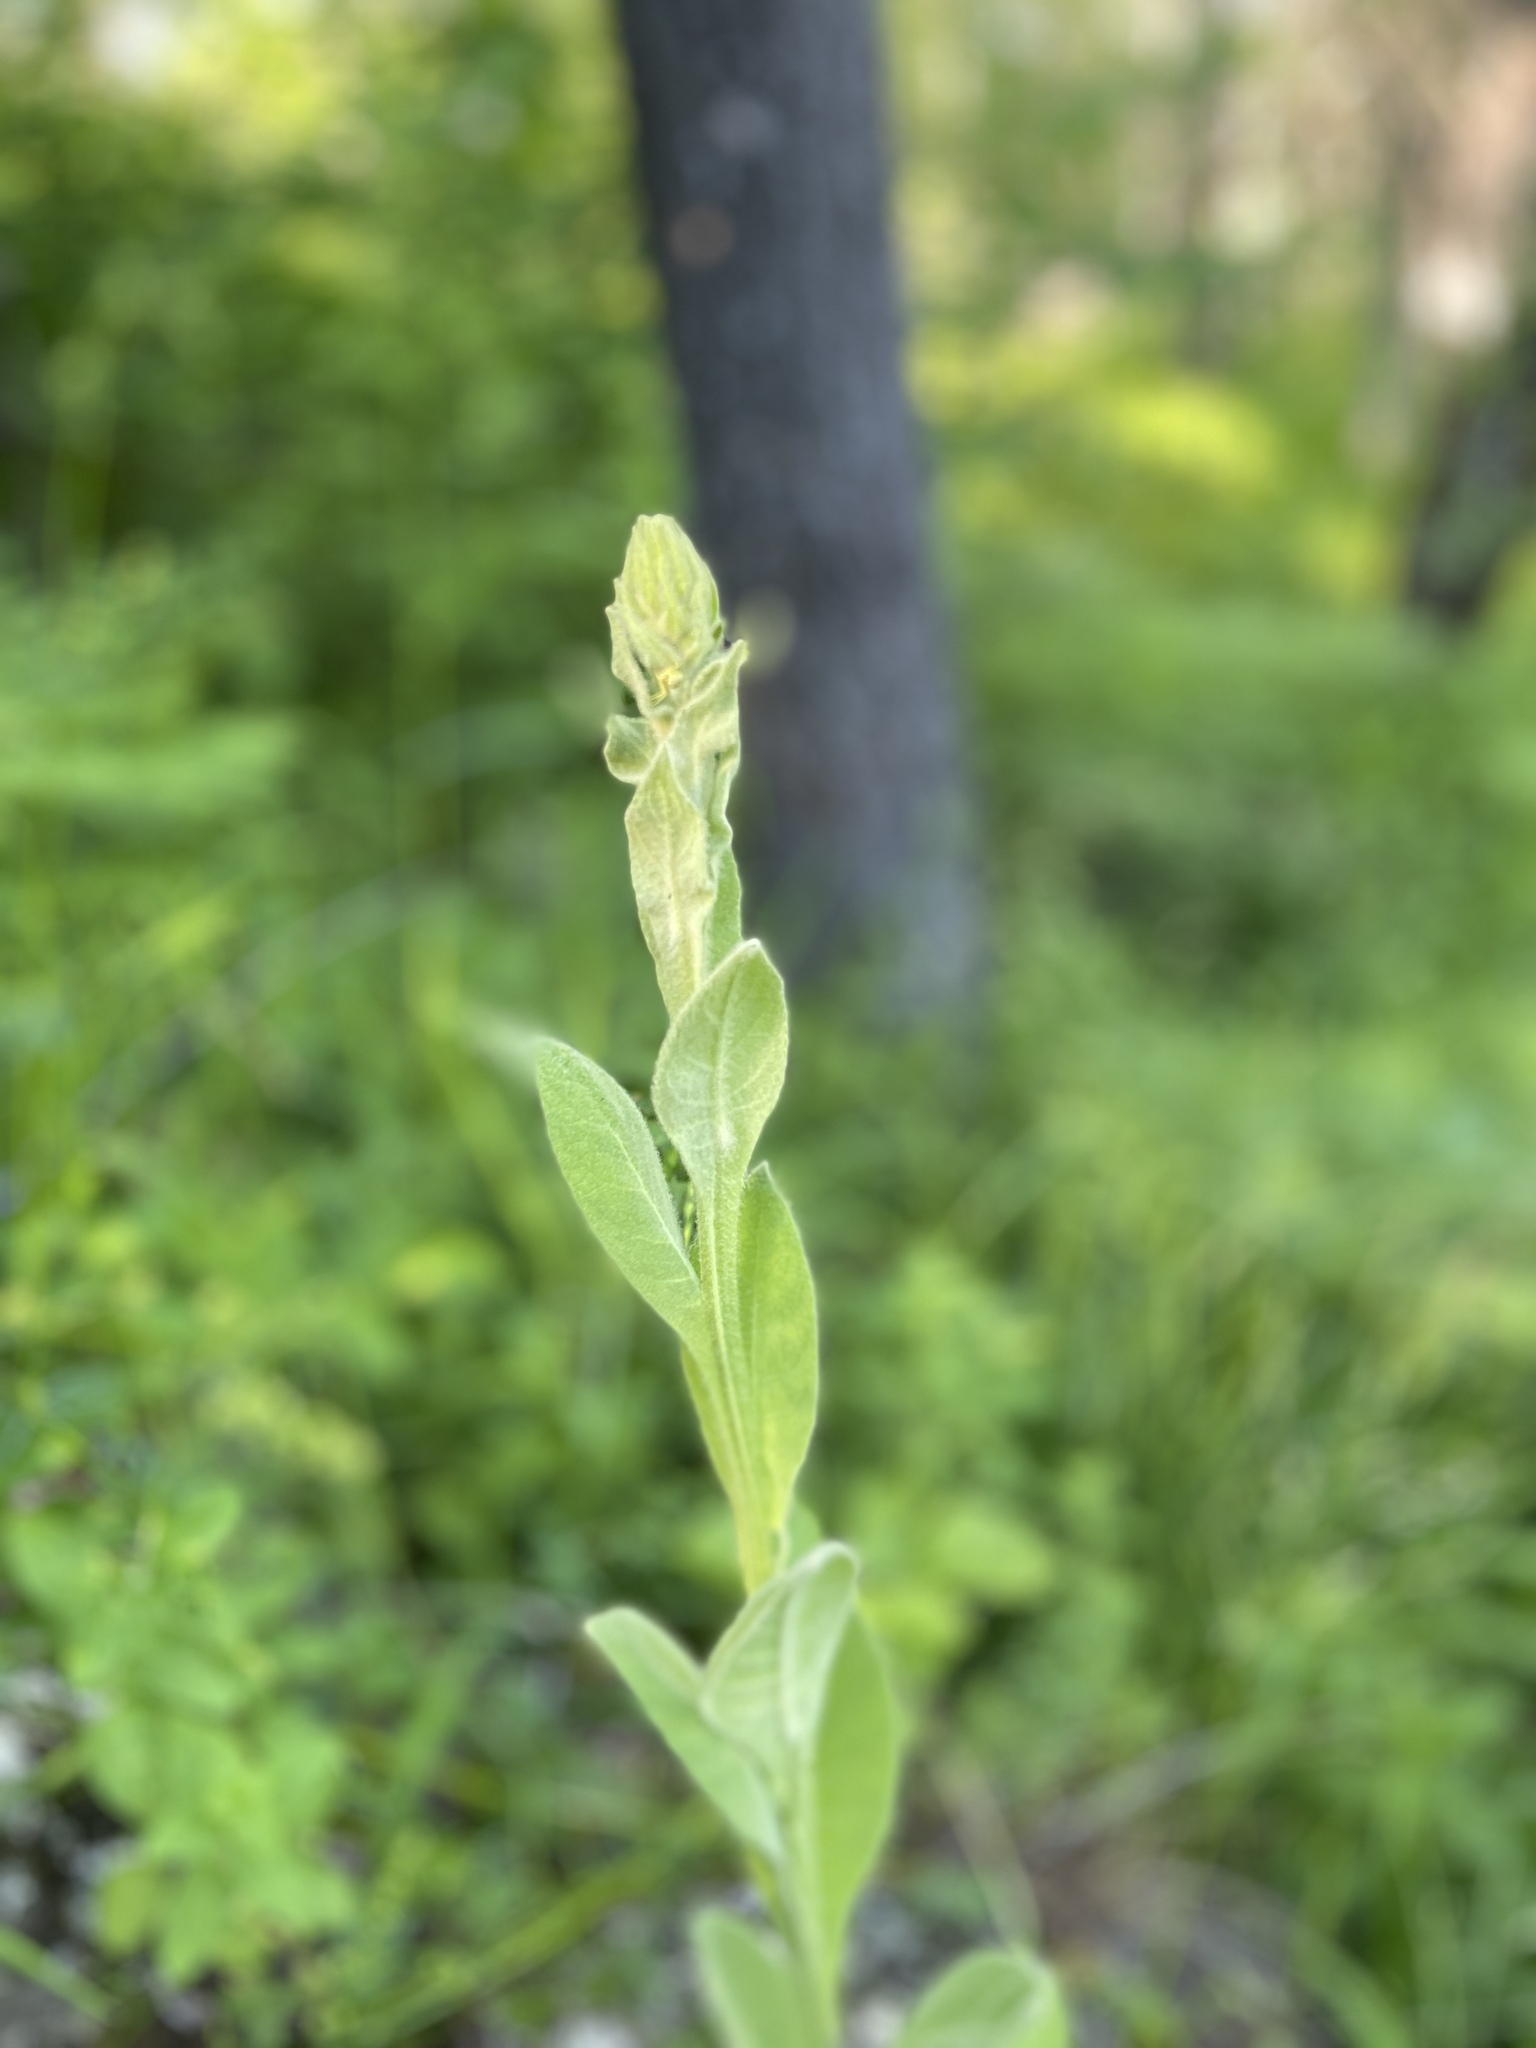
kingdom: Plantae
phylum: Tracheophyta
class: Magnoliopsida
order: Lamiales
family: Scrophulariaceae
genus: Verbascum
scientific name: Verbascum thapsus
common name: Common mullein
